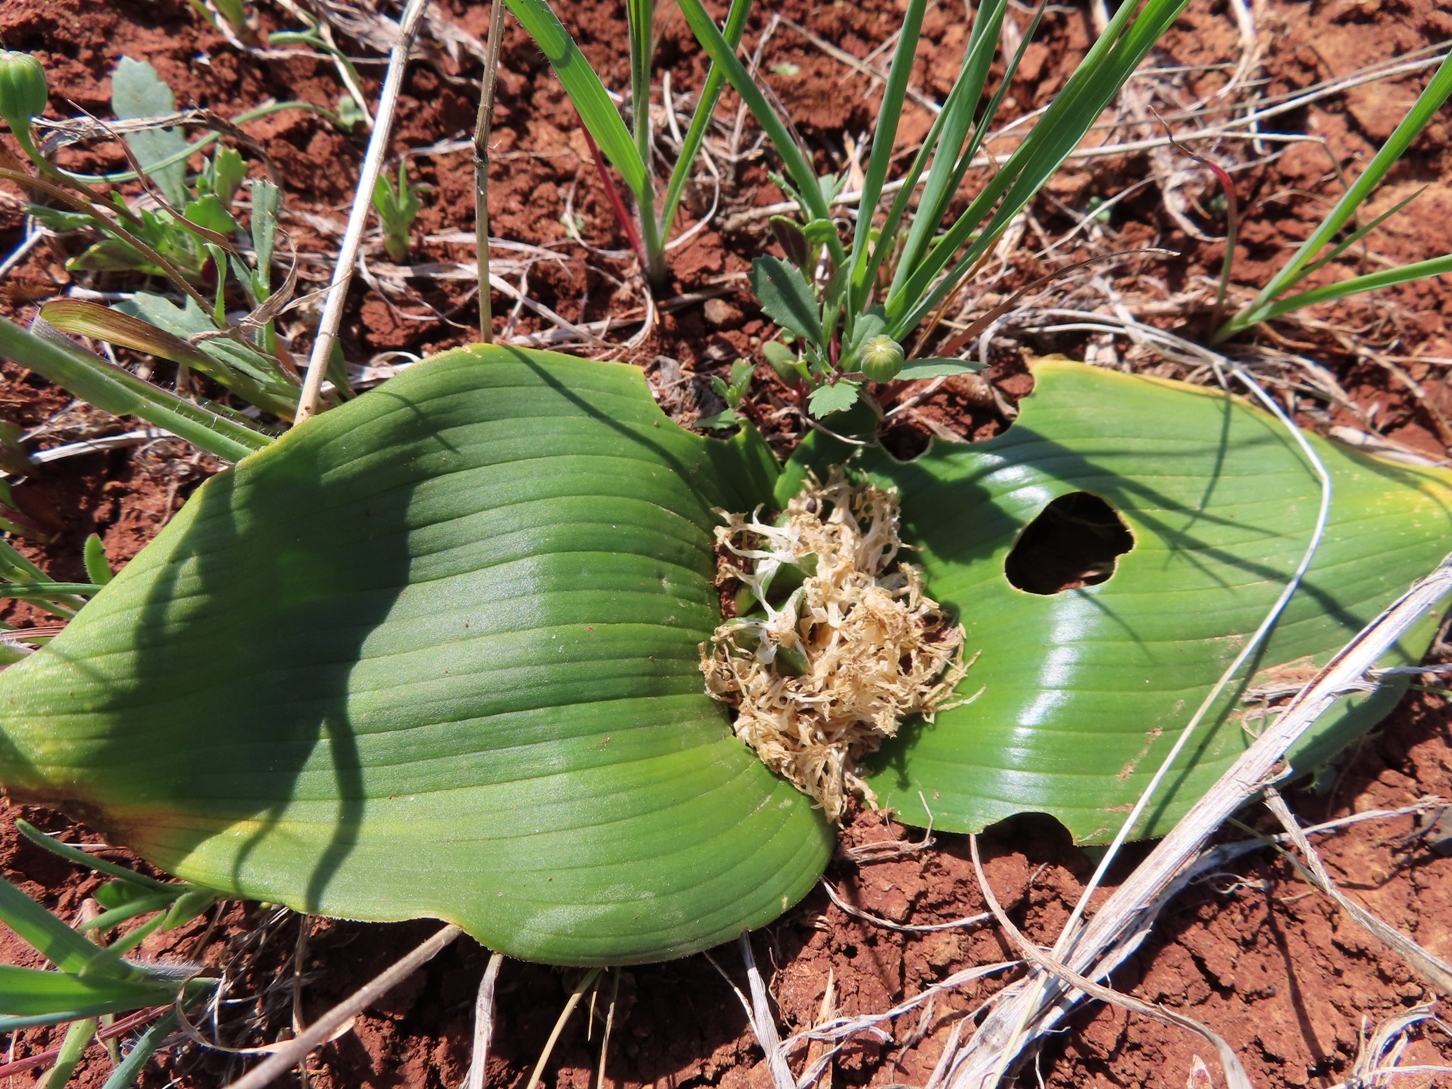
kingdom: Plantae
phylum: Tracheophyta
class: Liliopsida
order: Asparagales
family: Asparagaceae
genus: Daubenya
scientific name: Daubenya capensis
